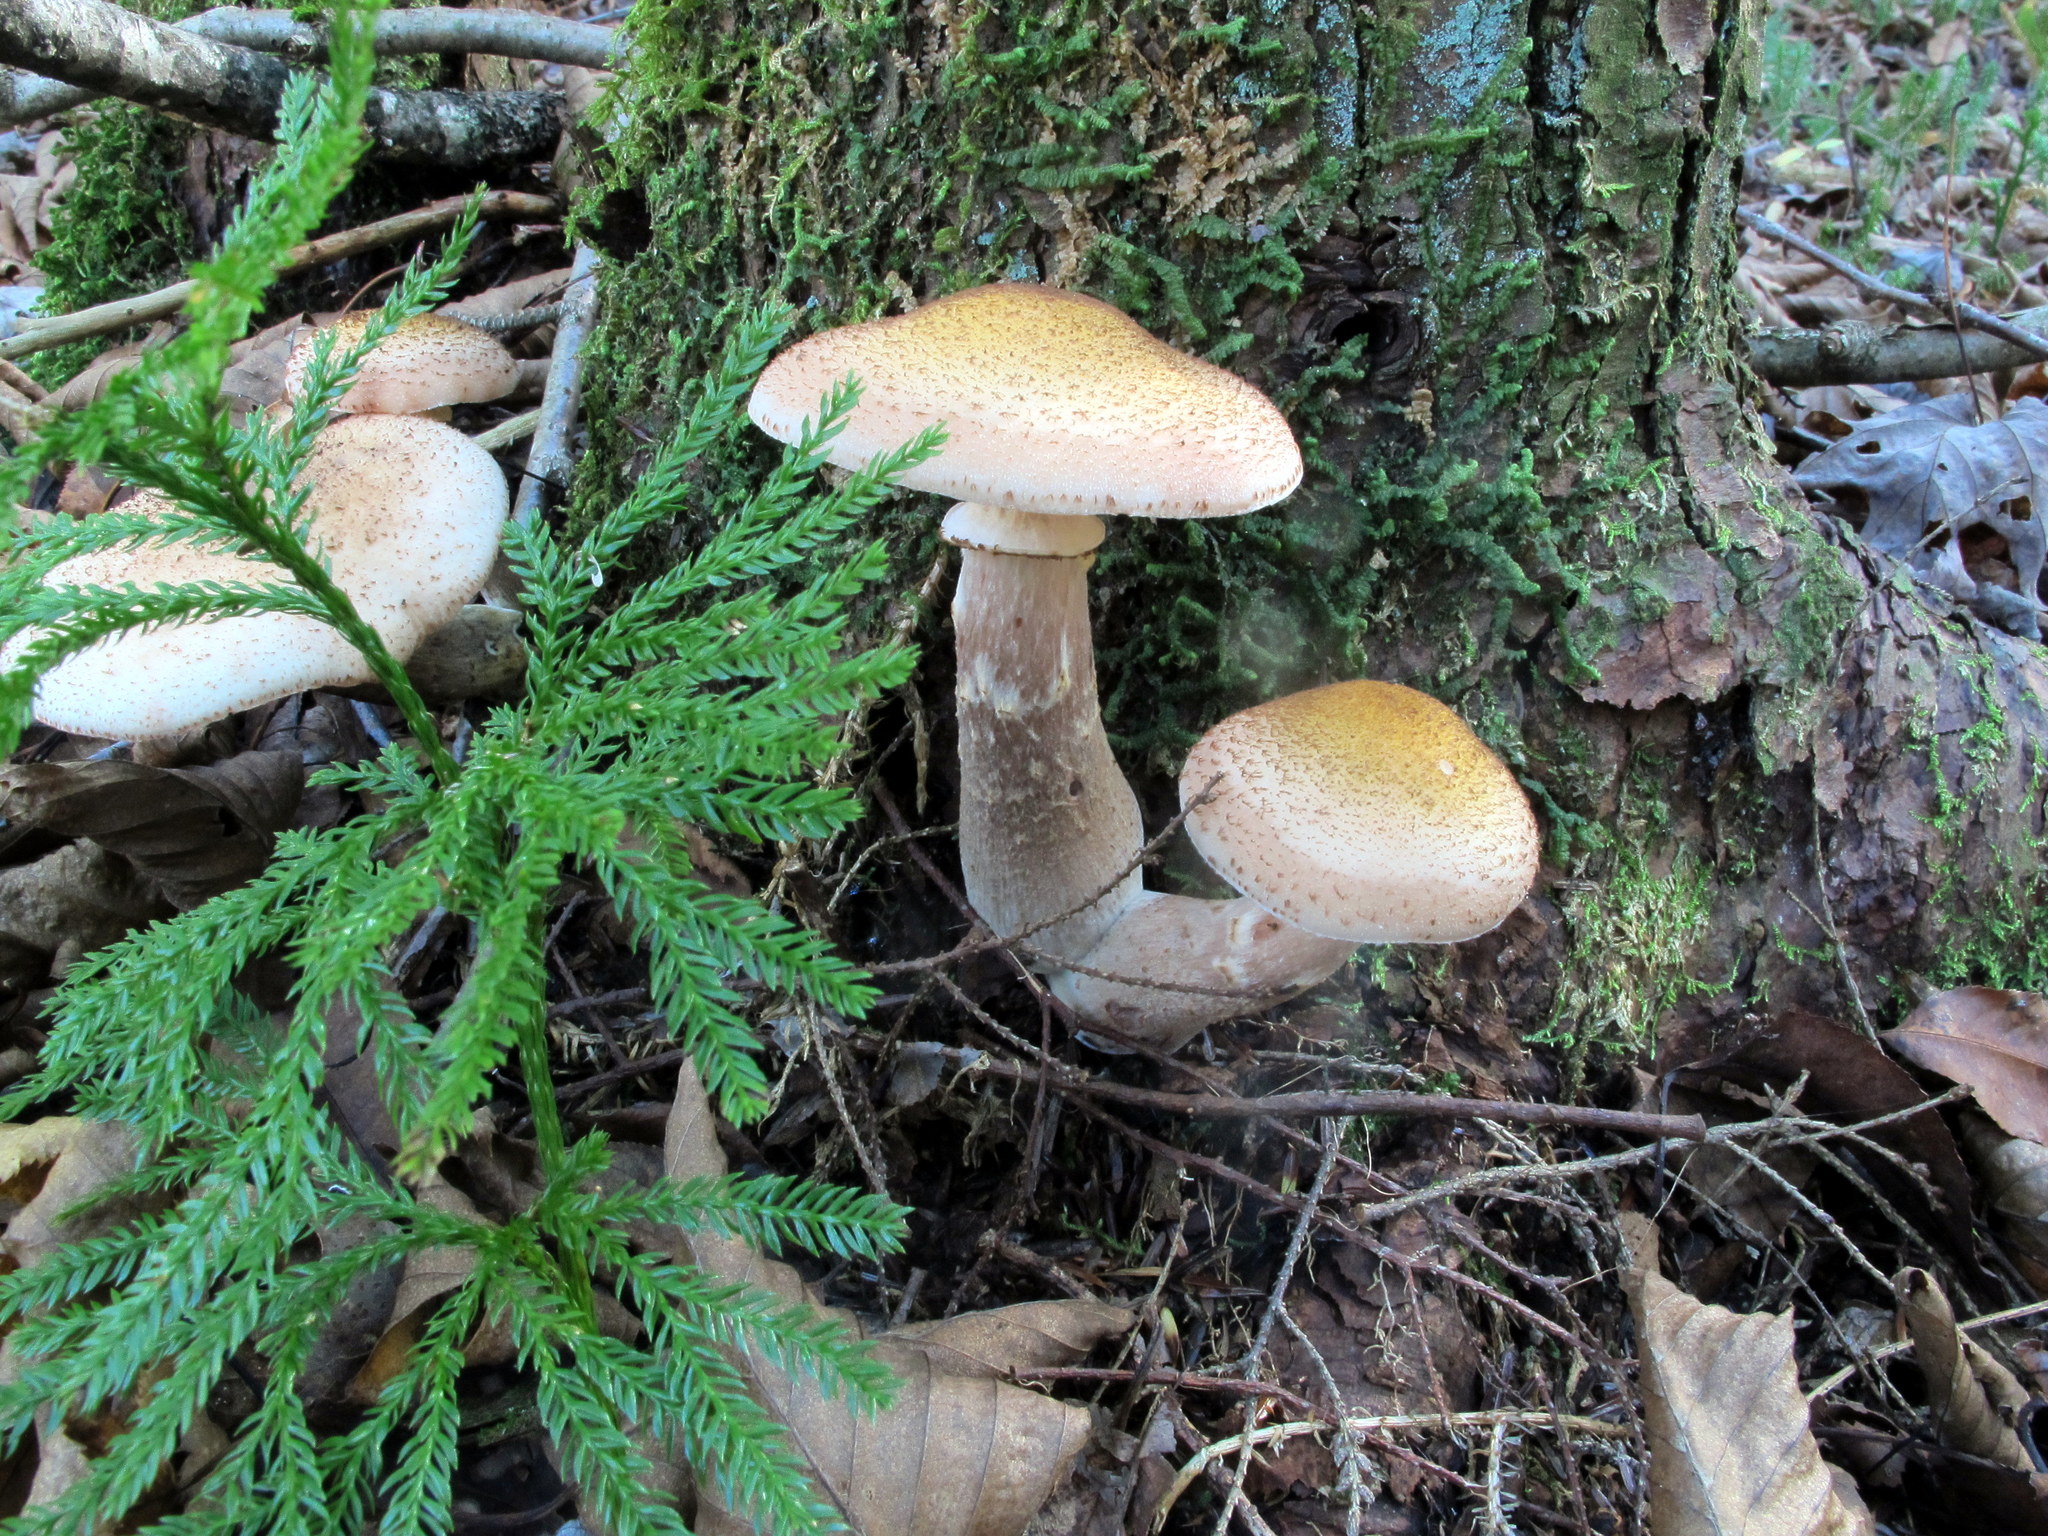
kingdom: Fungi
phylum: Basidiomycota
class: Agaricomycetes
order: Agaricales
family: Physalacriaceae
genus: Armillaria
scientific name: Armillaria ostoyae
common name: Dark honey fungus
